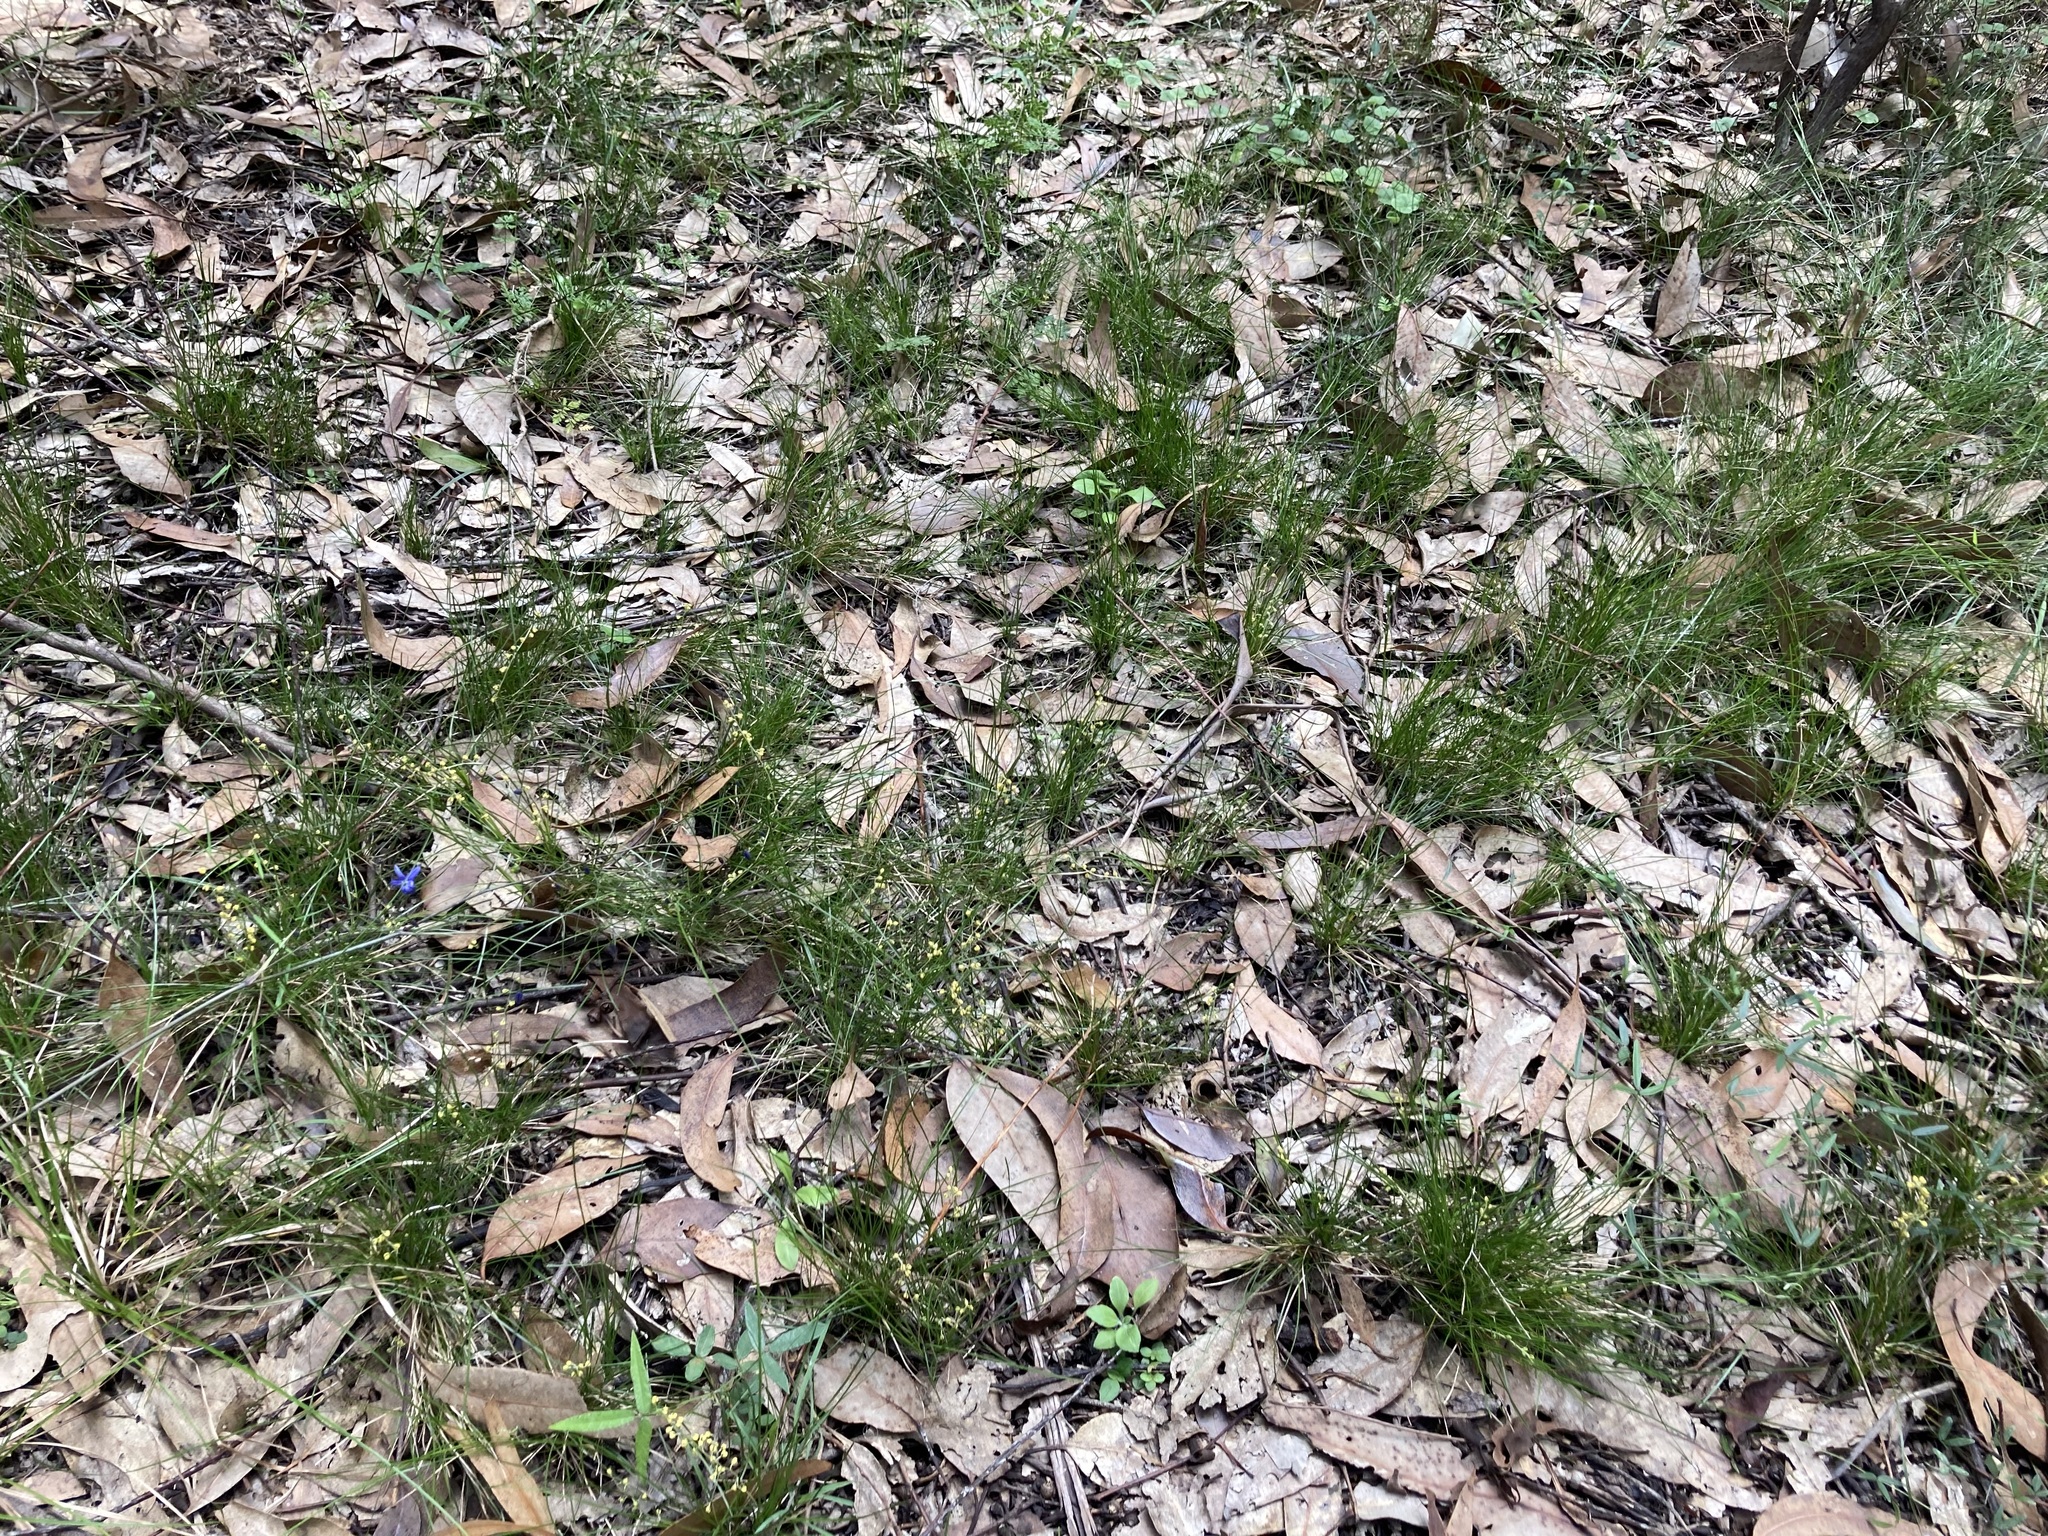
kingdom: Plantae
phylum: Tracheophyta
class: Liliopsida
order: Asparagales
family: Asparagaceae
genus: Lomandra
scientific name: Lomandra filiformis
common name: Wattle mat-rush
